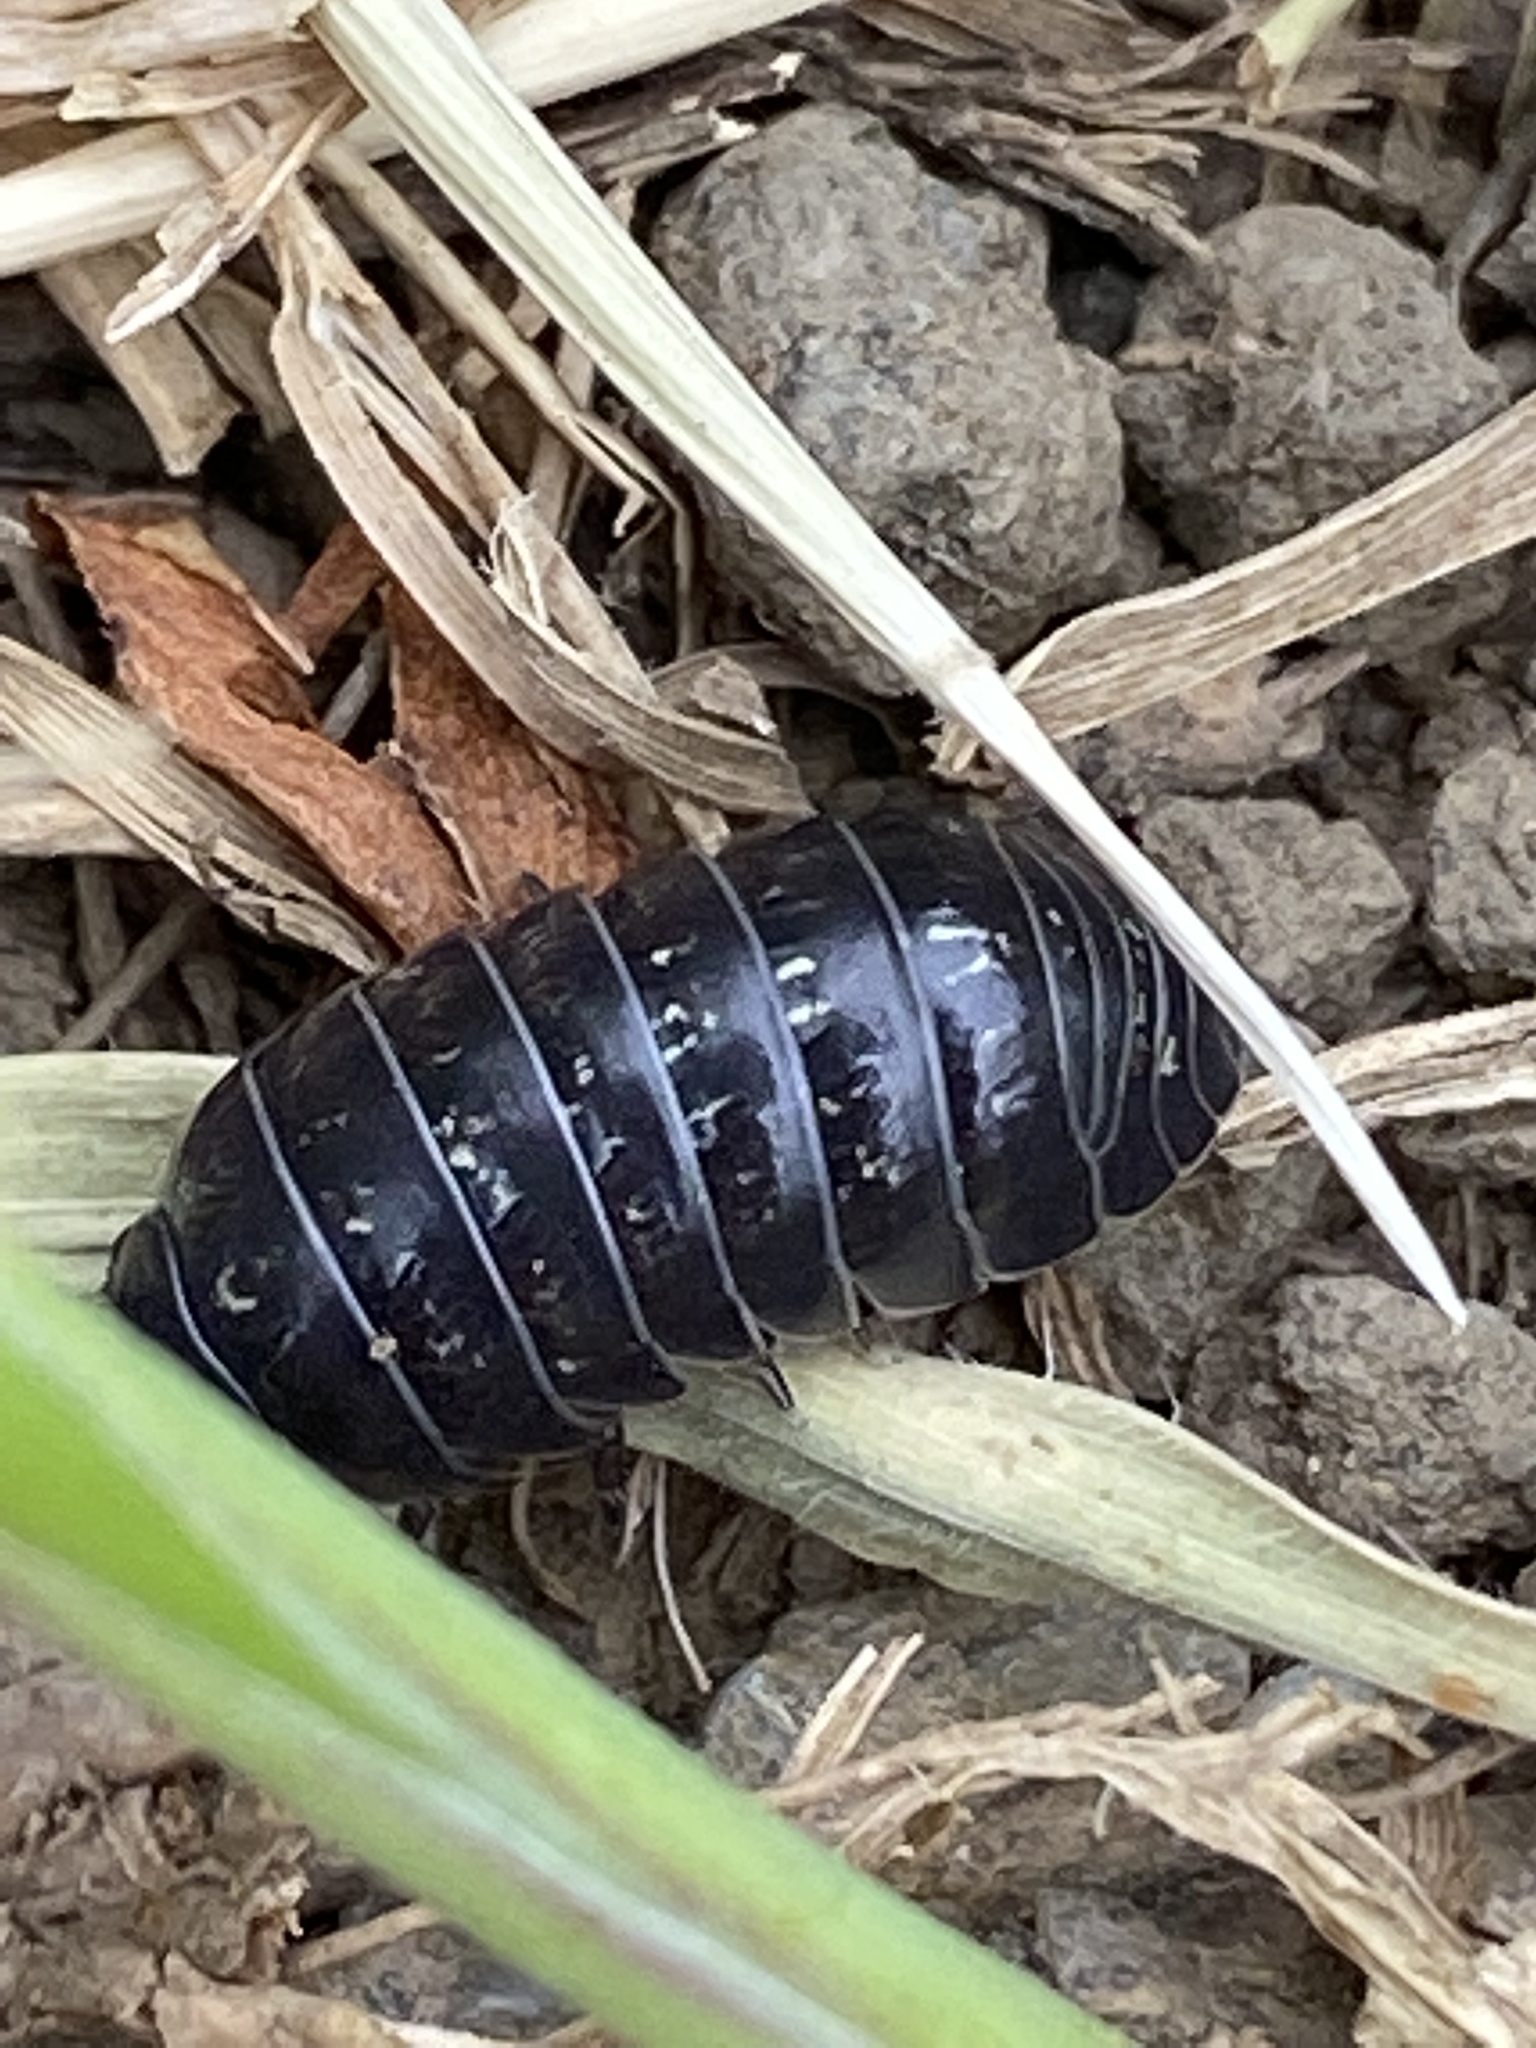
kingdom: Animalia
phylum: Arthropoda
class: Malacostraca
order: Isopoda
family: Armadillidiidae
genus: Armadillidium
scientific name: Armadillidium vulgare
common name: Common pill woodlouse
